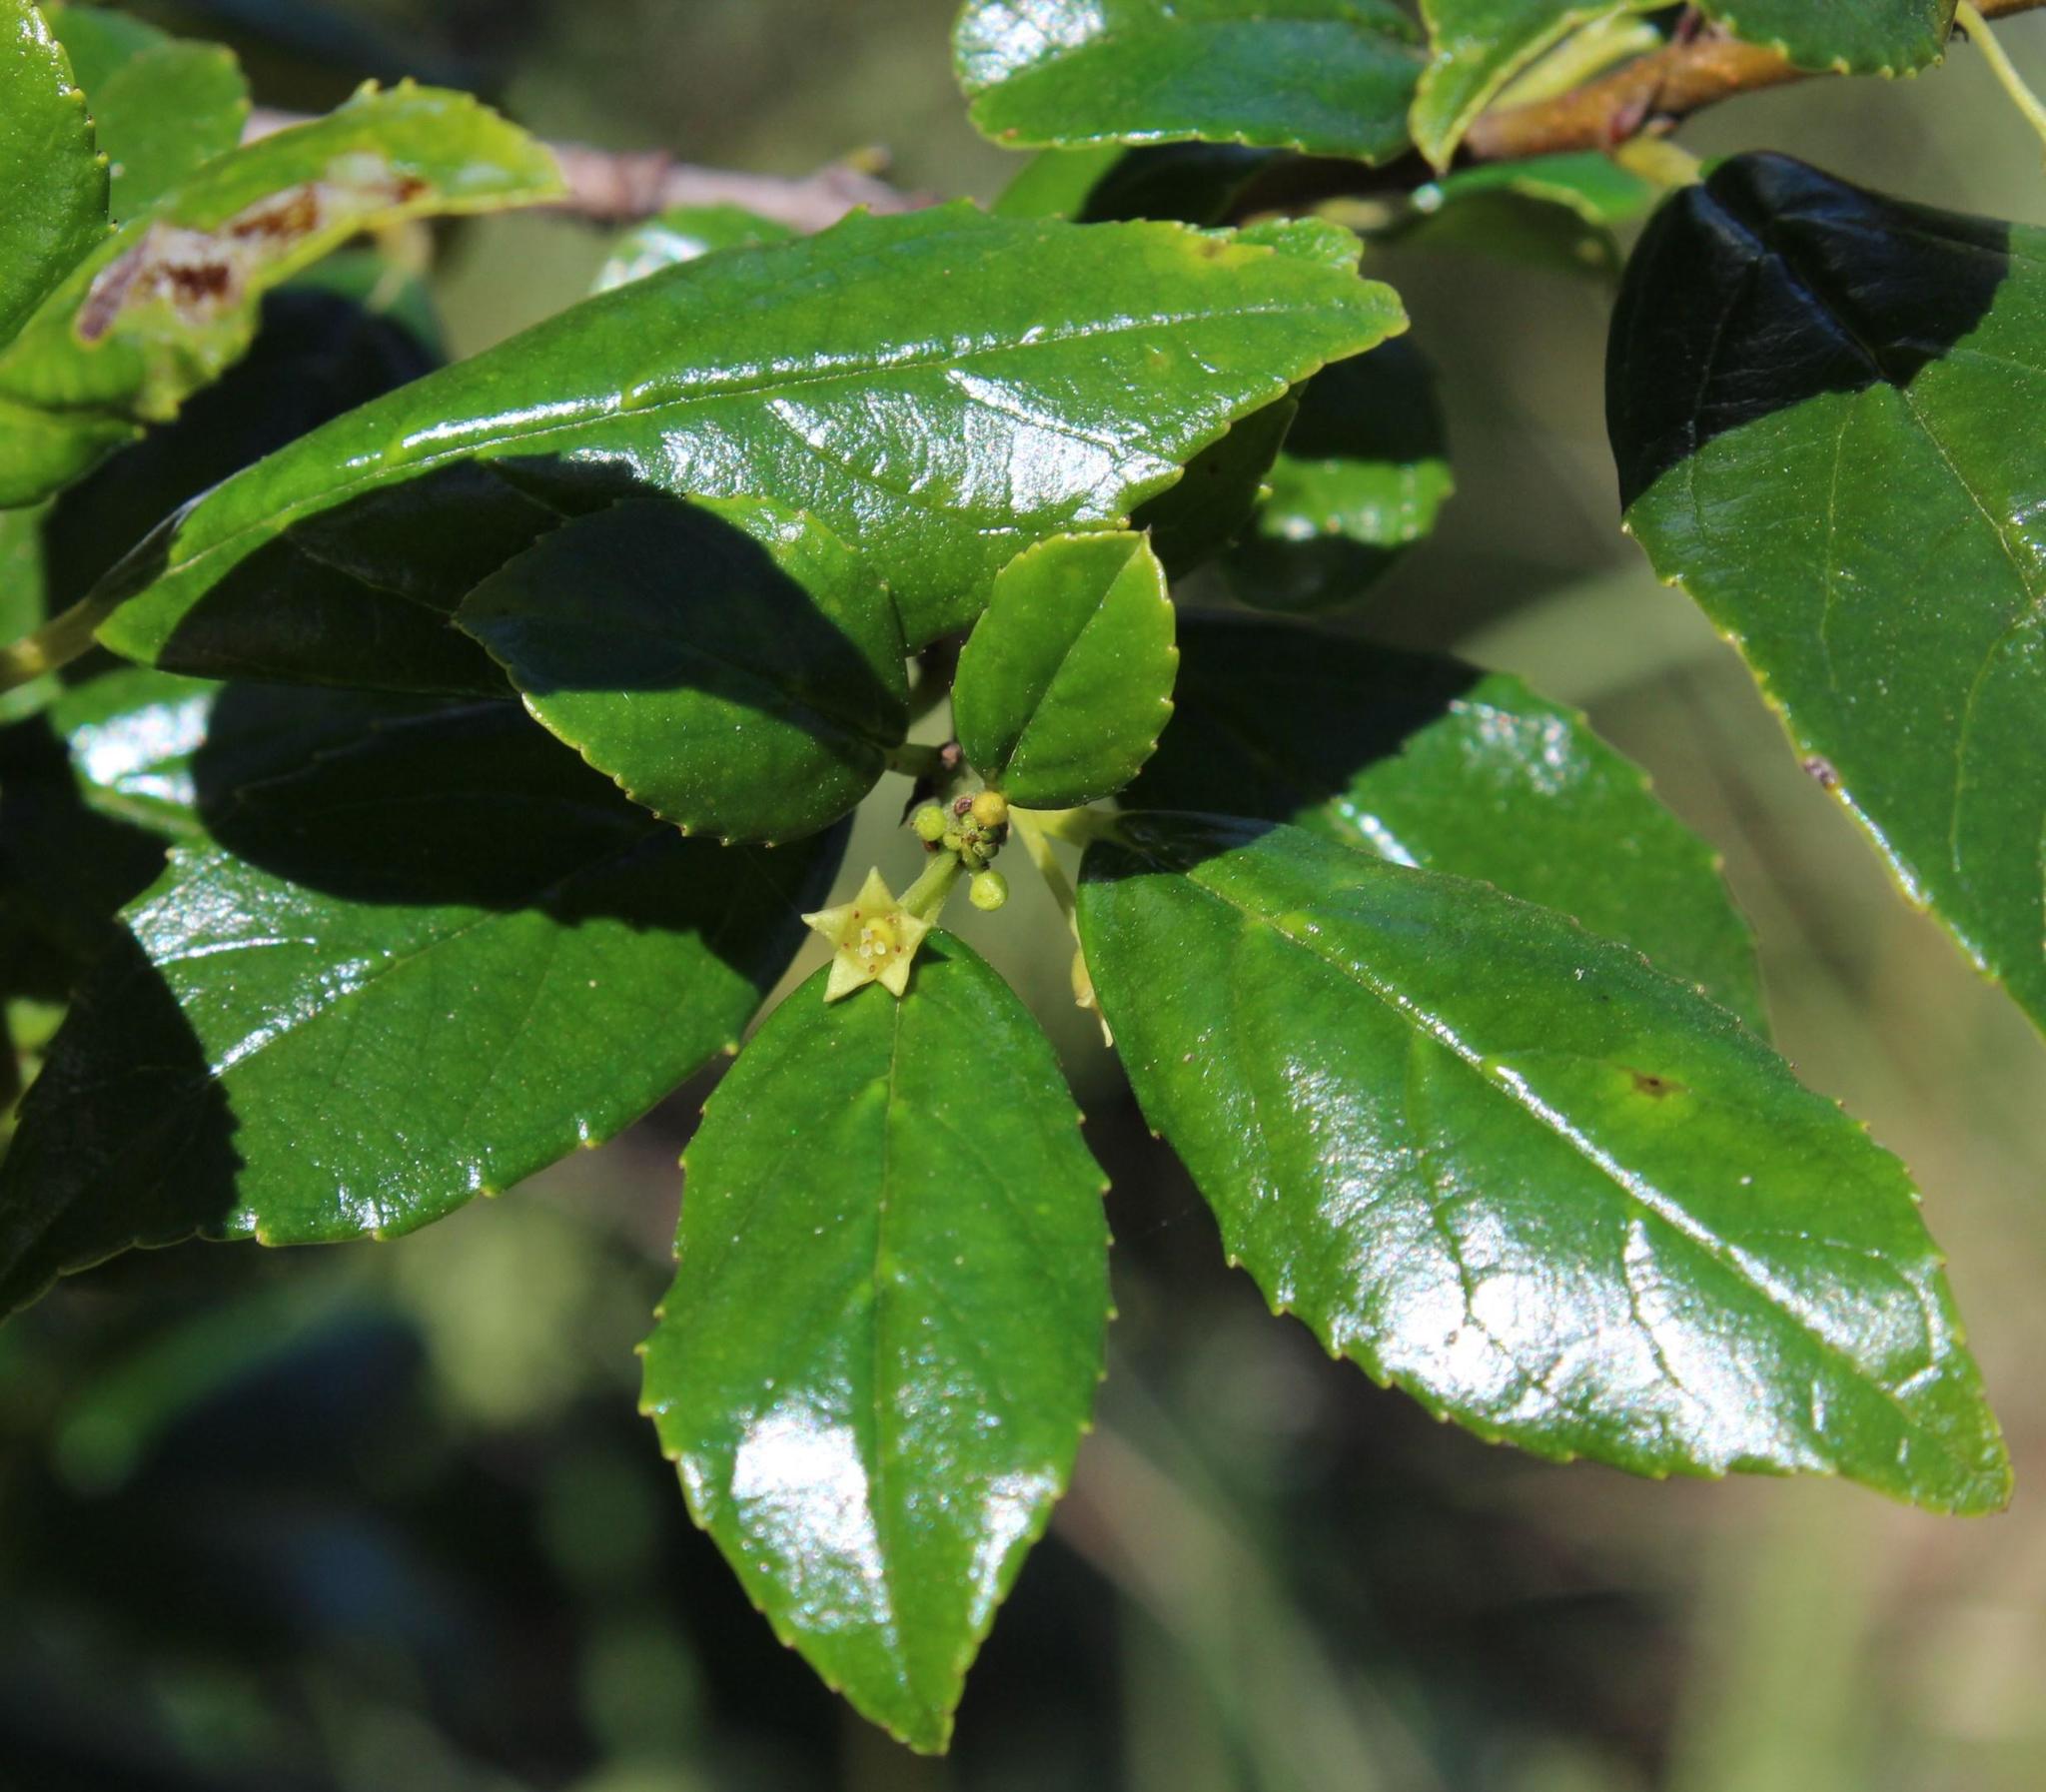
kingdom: Plantae
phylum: Tracheophyta
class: Magnoliopsida
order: Rosales
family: Rhamnaceae
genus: Rhamnus
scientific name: Rhamnus prinoides
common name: Dogwood
